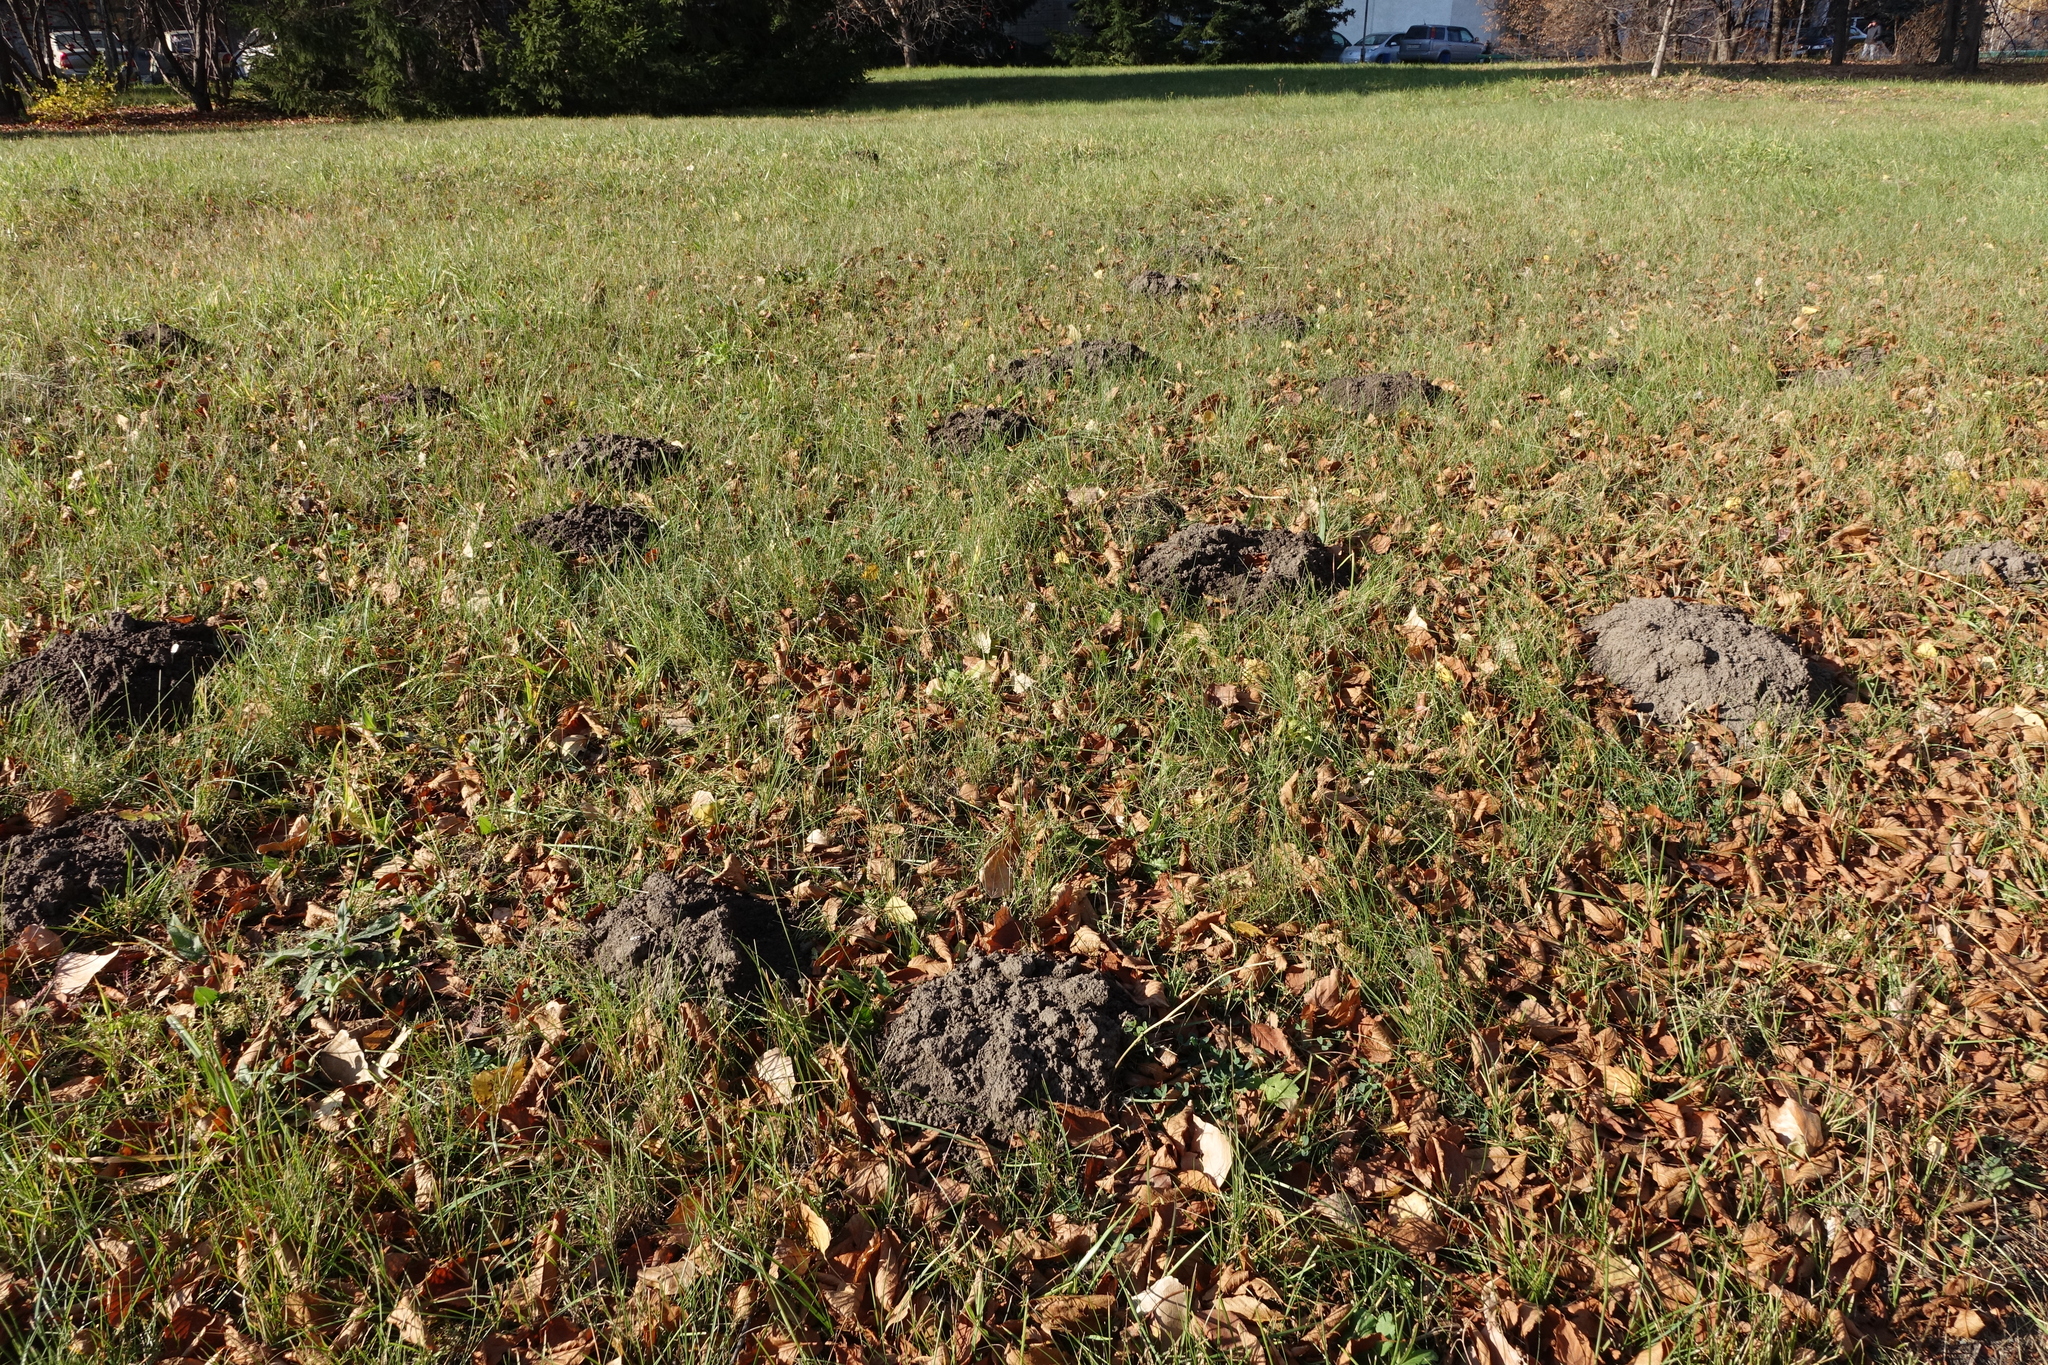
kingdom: Animalia
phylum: Chordata
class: Mammalia
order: Soricomorpha
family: Talpidae
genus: Talpa
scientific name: Talpa altaica
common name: Altai mole
